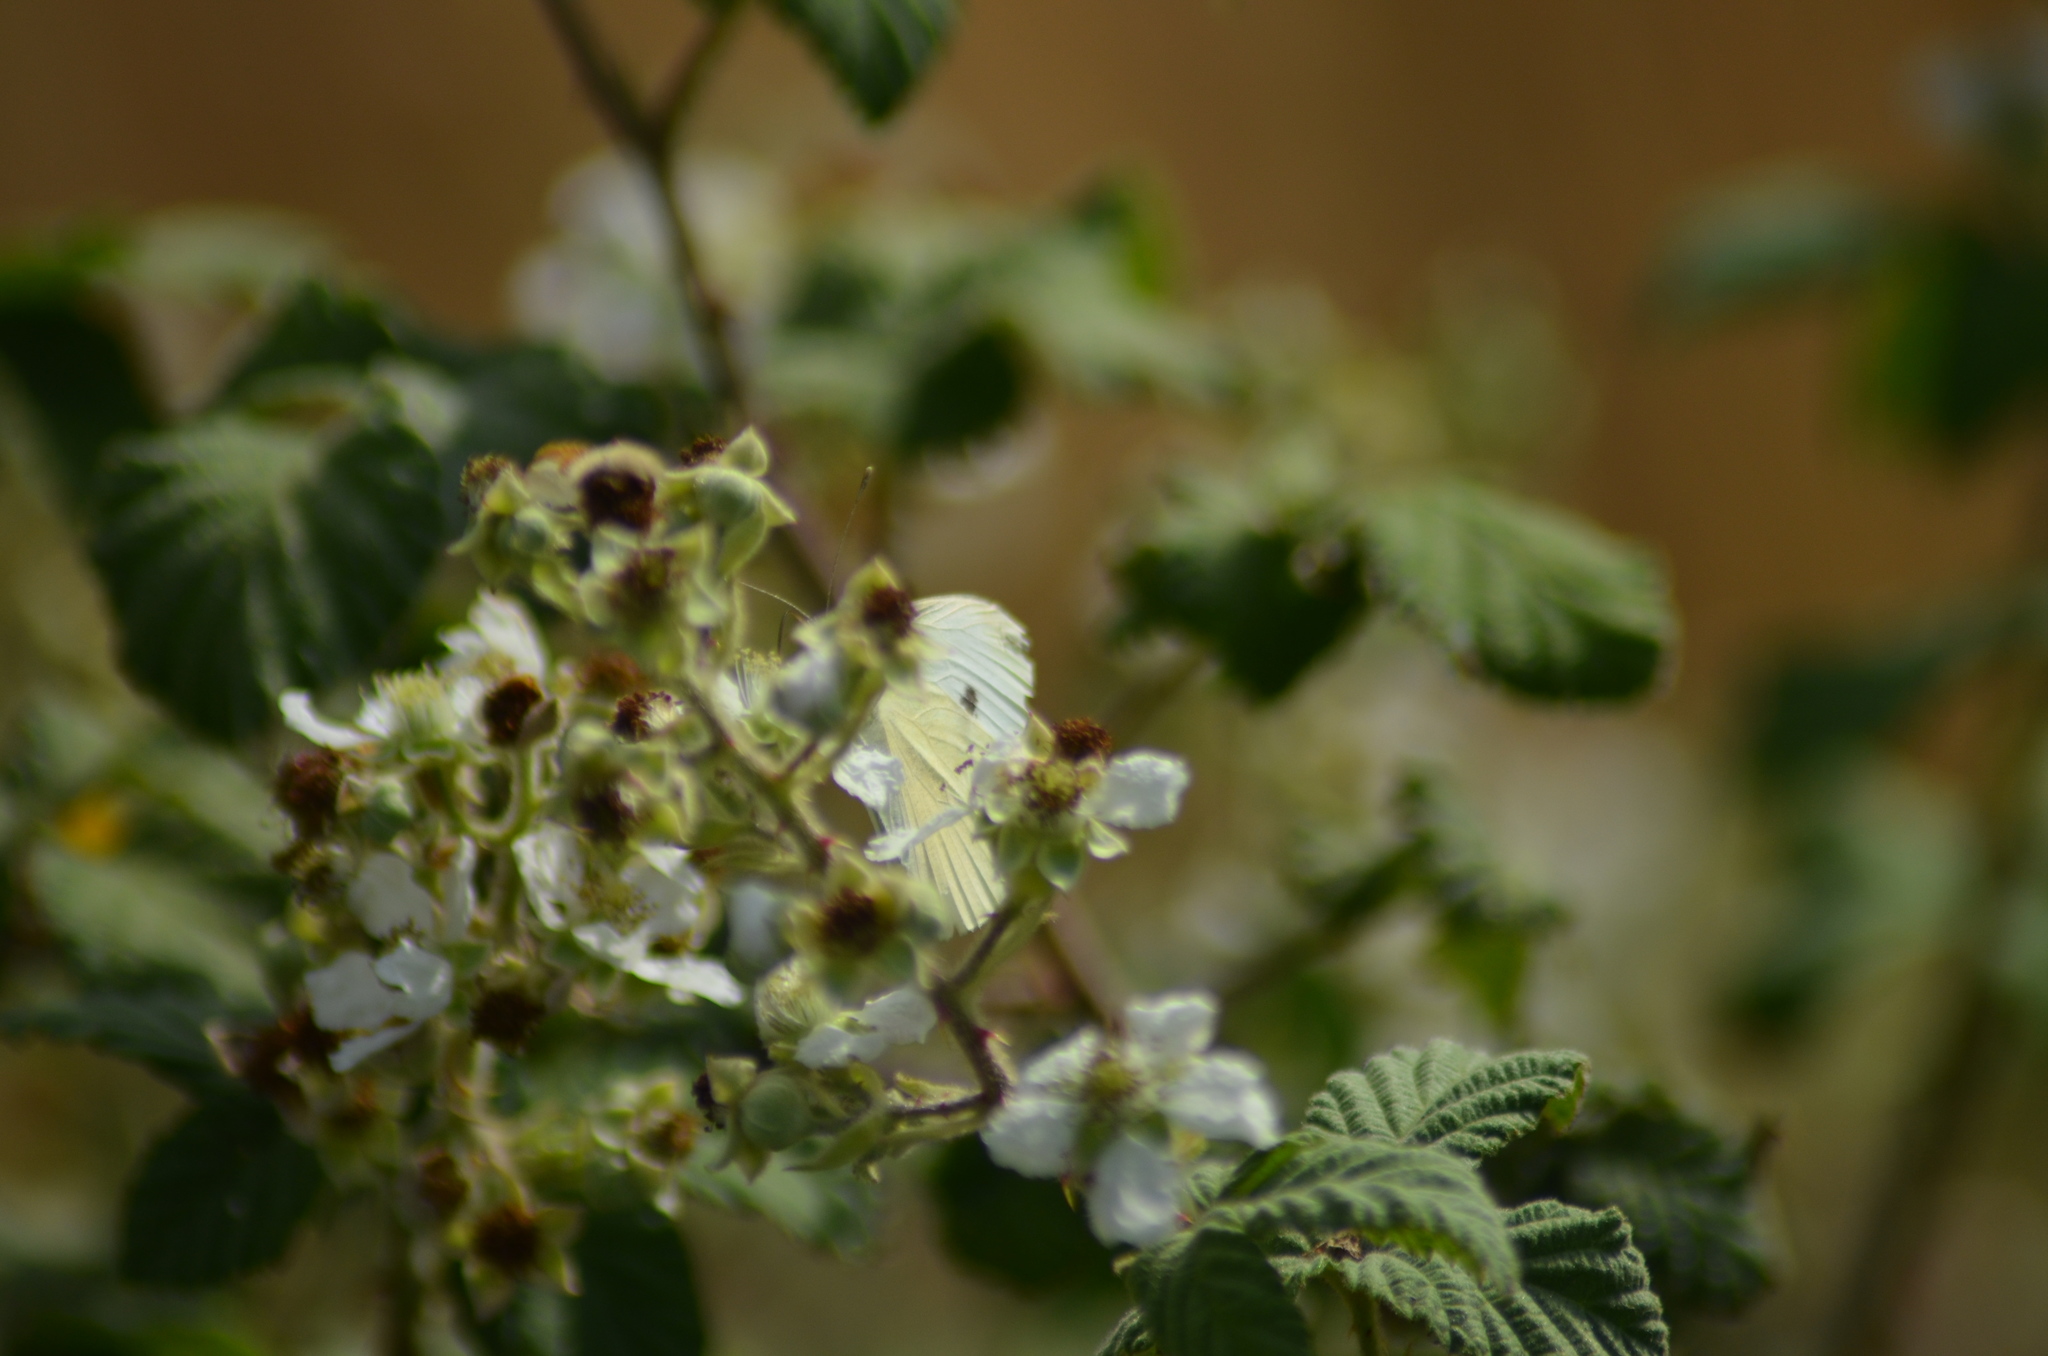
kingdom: Animalia
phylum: Arthropoda
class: Insecta
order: Lepidoptera
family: Pieridae
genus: Pieris
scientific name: Pieris rapae
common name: Small white
